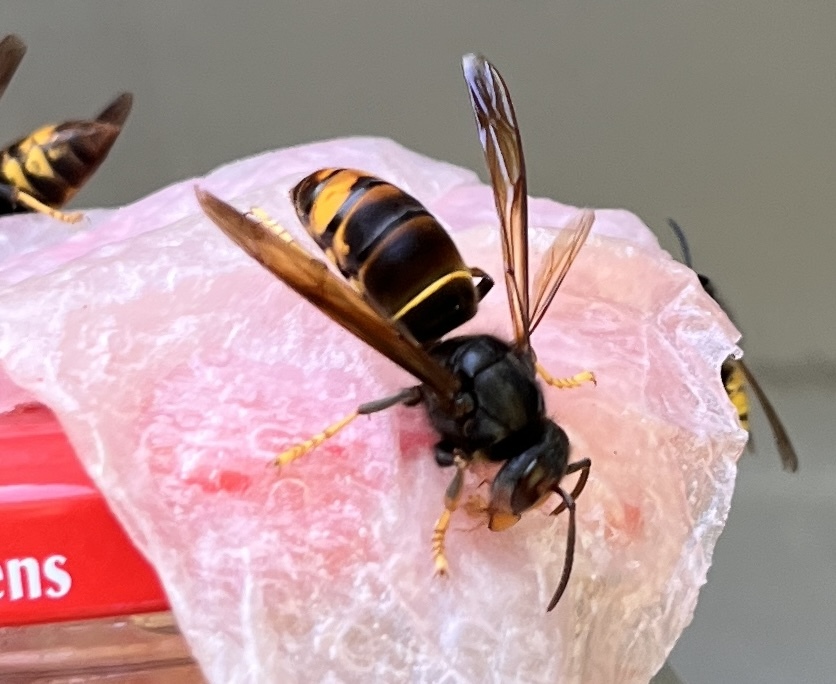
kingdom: Animalia
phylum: Arthropoda
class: Insecta
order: Hymenoptera
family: Vespidae
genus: Vespa
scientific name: Vespa velutina
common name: Asian hornet
